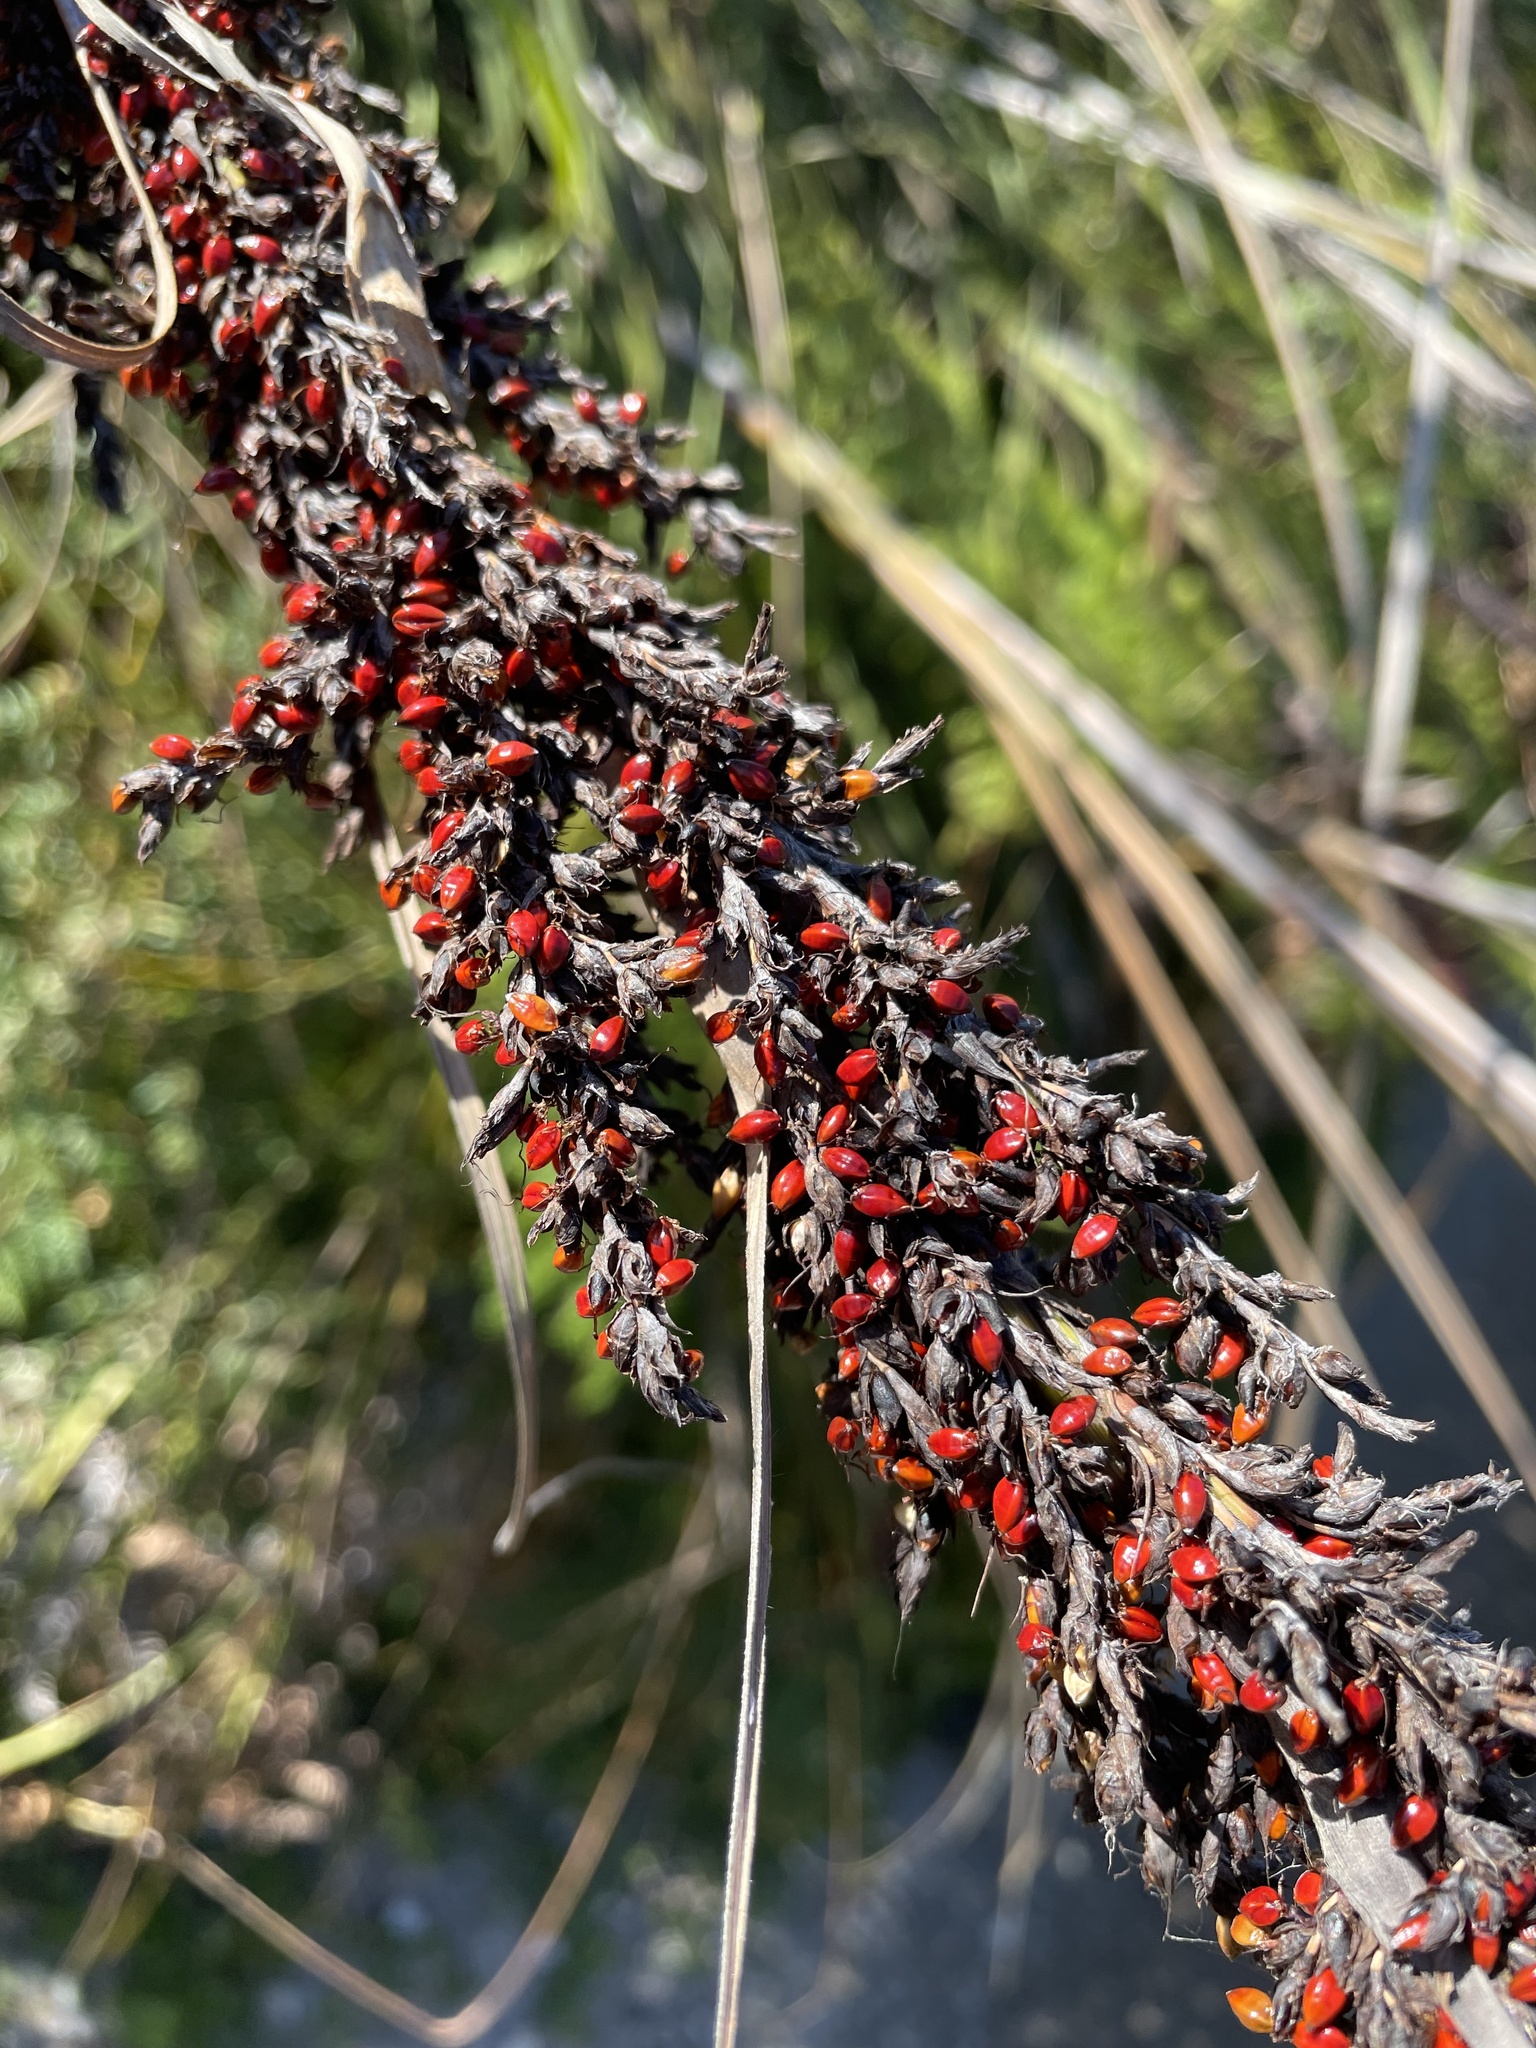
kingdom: Plantae
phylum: Tracheophyta
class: Liliopsida
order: Poales
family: Cyperaceae
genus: Gahnia
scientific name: Gahnia sieberiana
